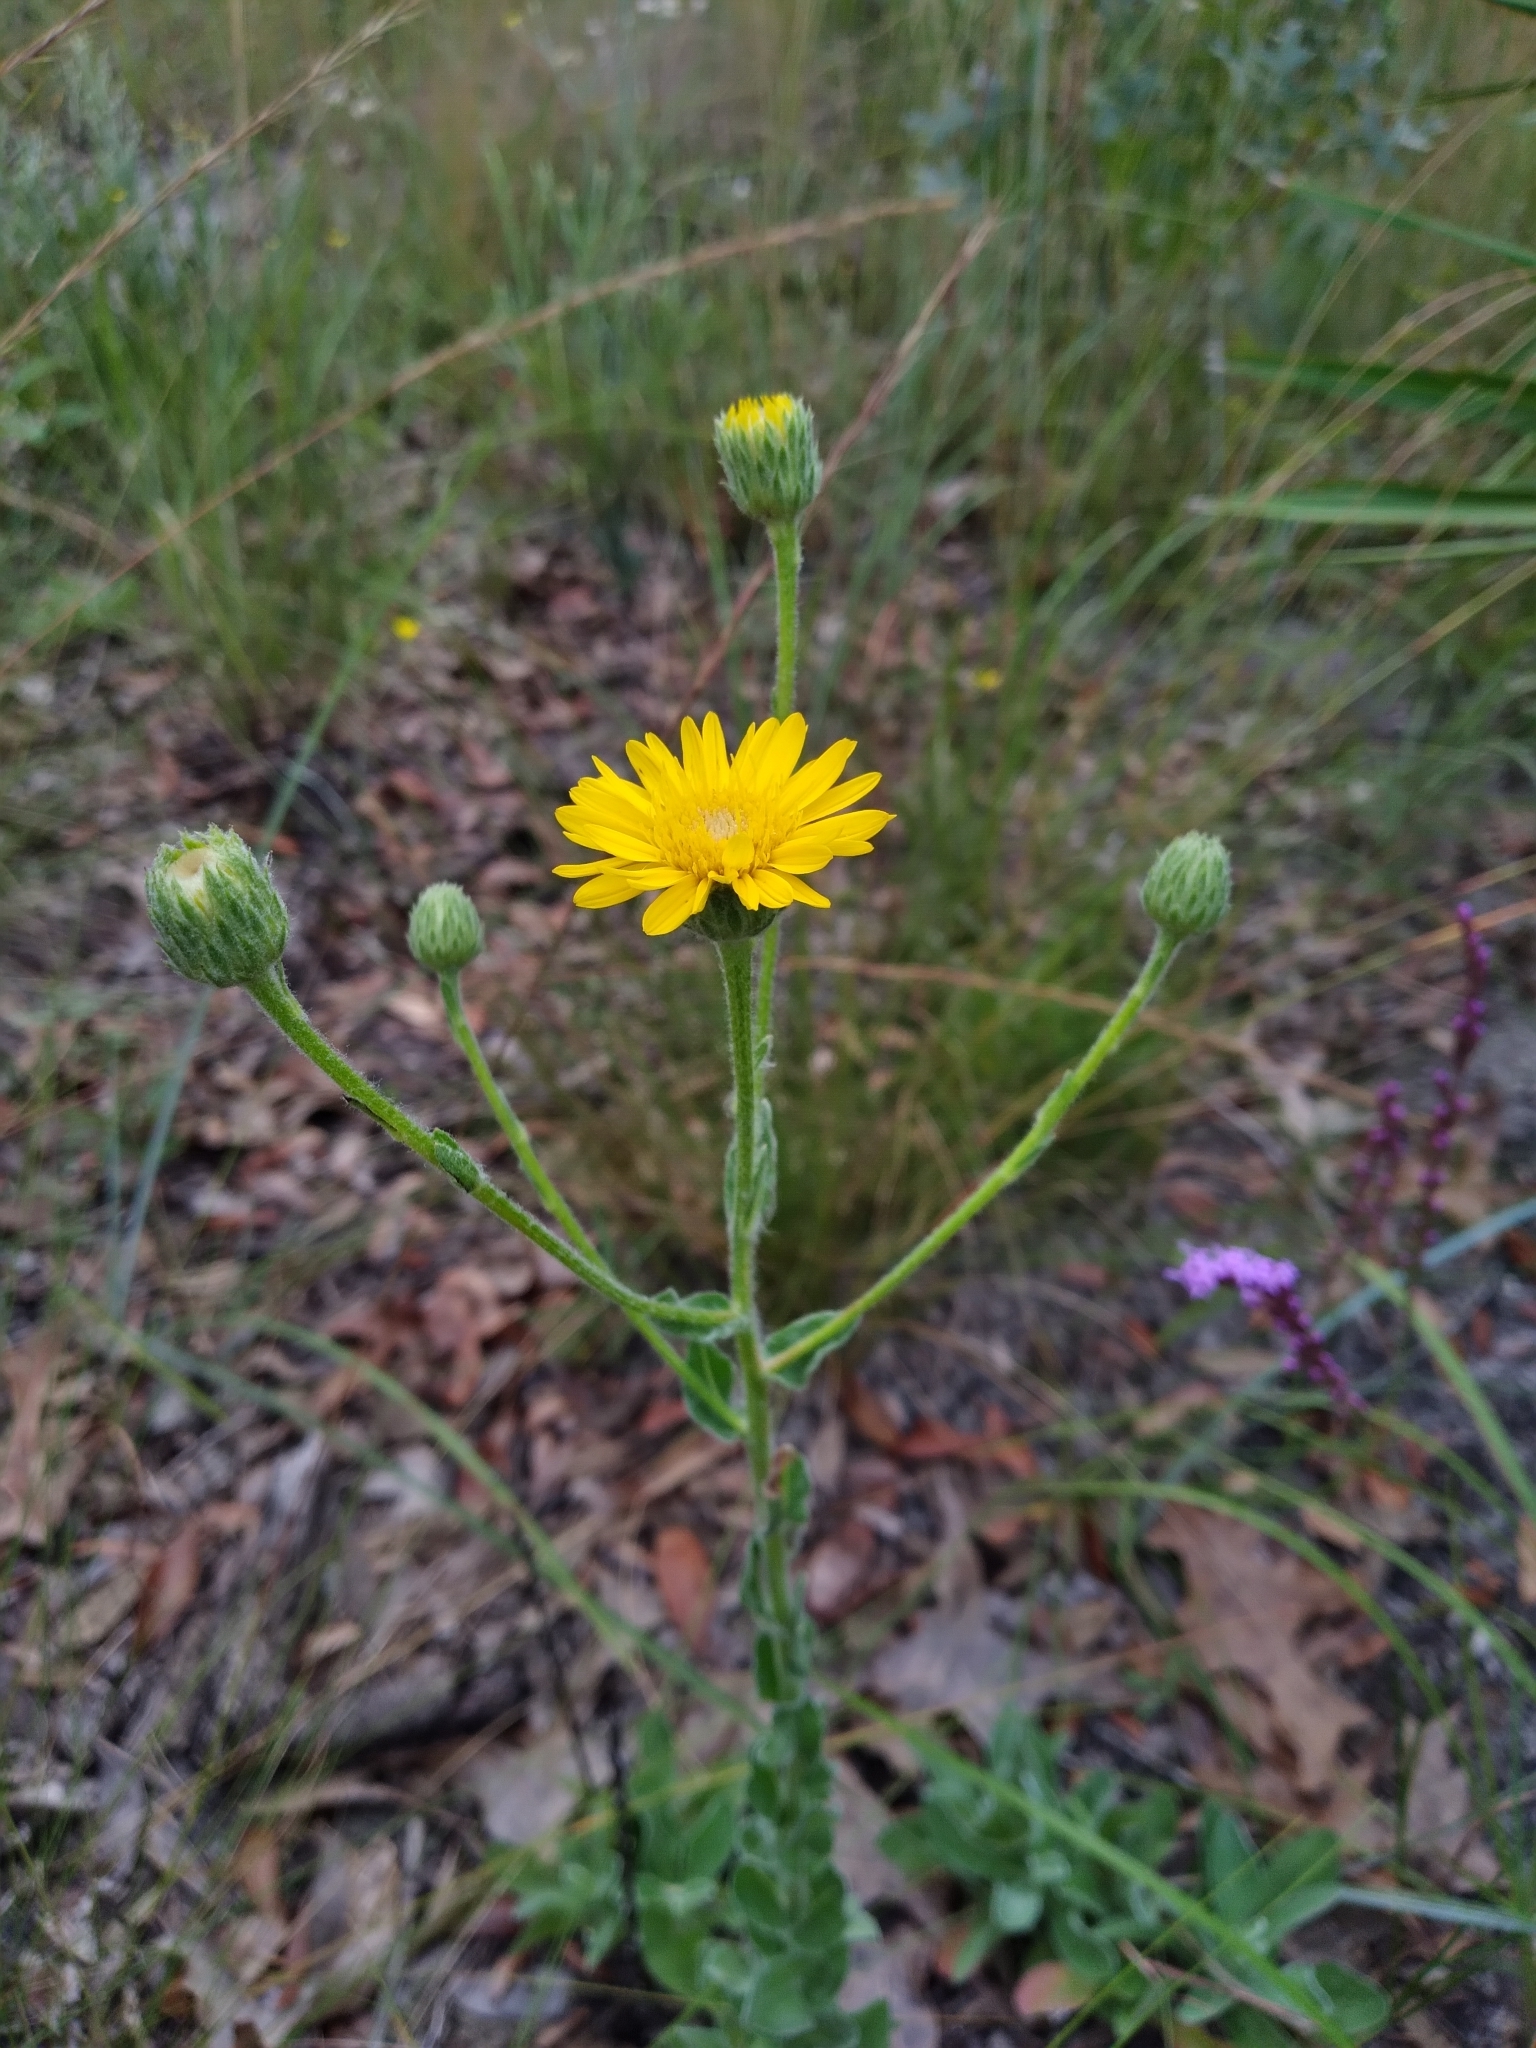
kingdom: Plantae
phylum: Tracheophyta
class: Magnoliopsida
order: Asterales
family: Asteraceae
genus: Chrysopsis
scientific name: Chrysopsis gossypina
